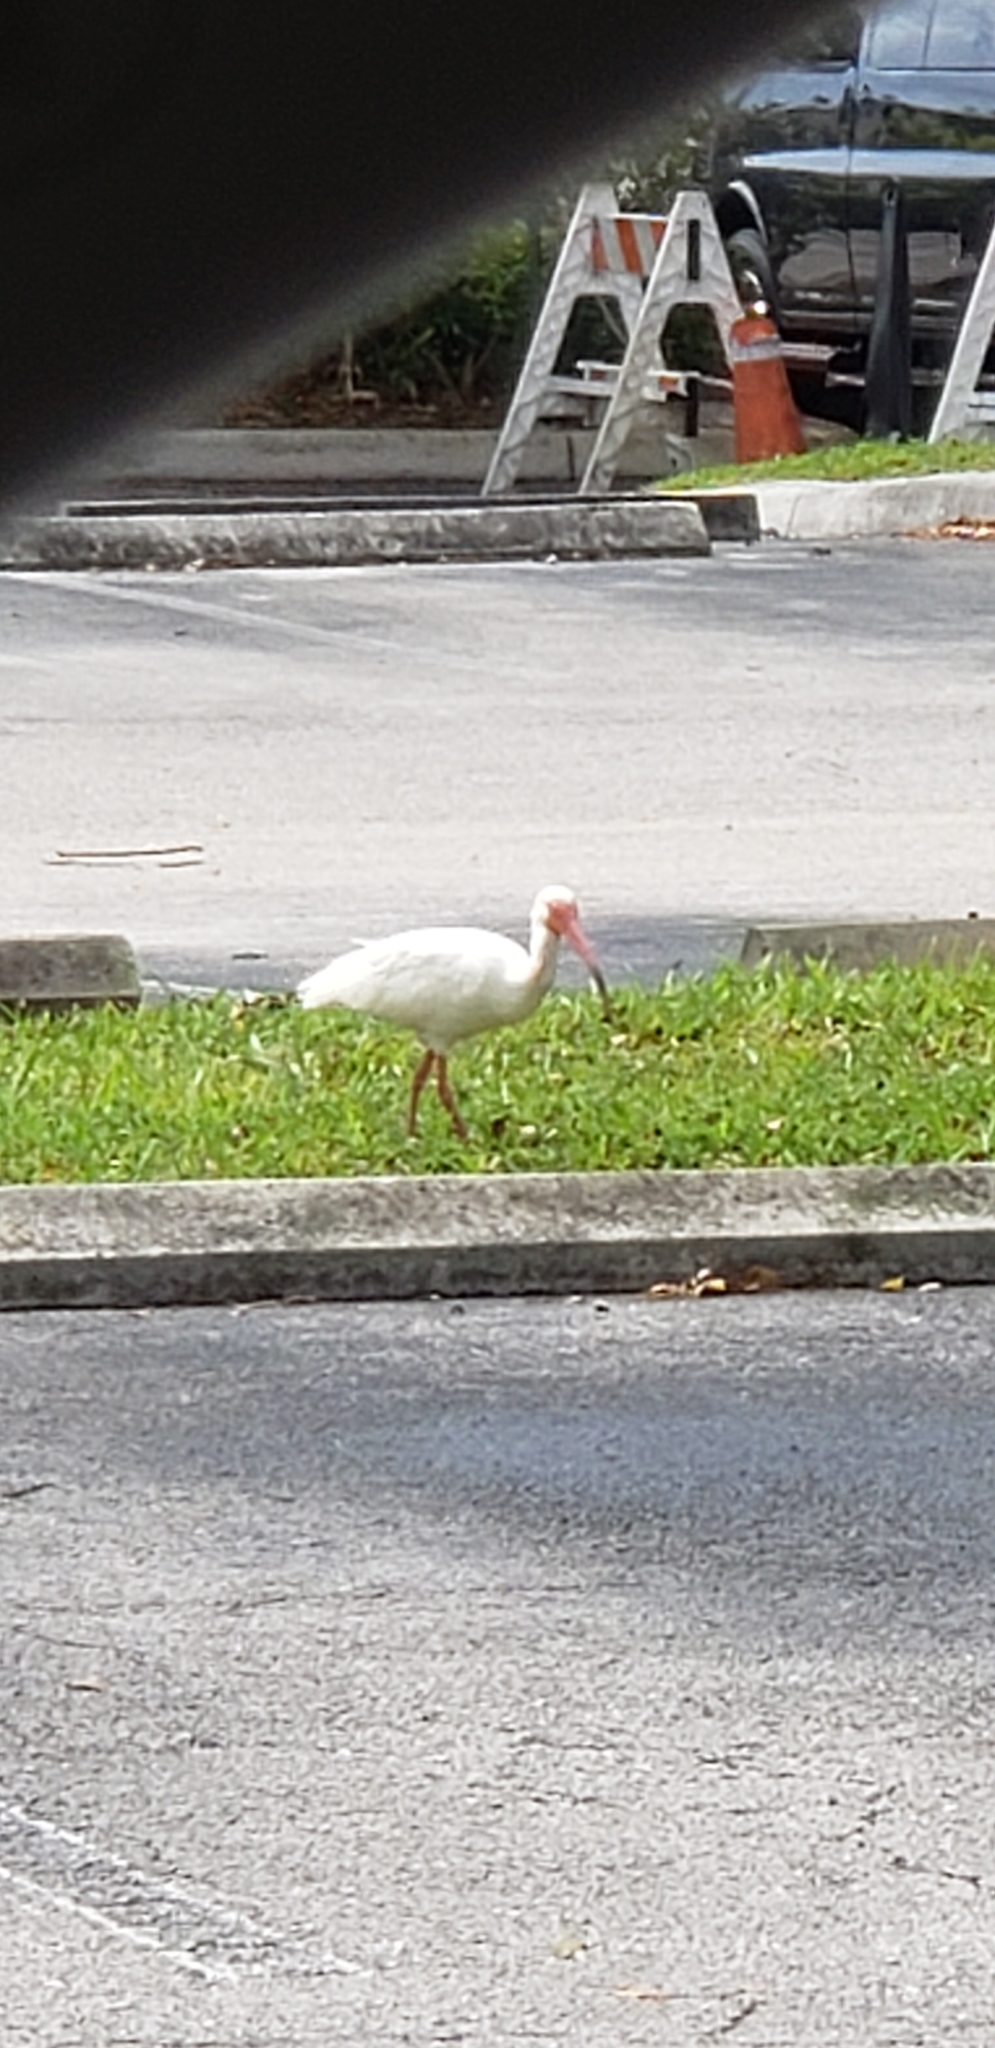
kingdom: Animalia
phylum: Chordata
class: Aves
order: Pelecaniformes
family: Threskiornithidae
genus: Eudocimus
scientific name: Eudocimus albus
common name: White ibis
